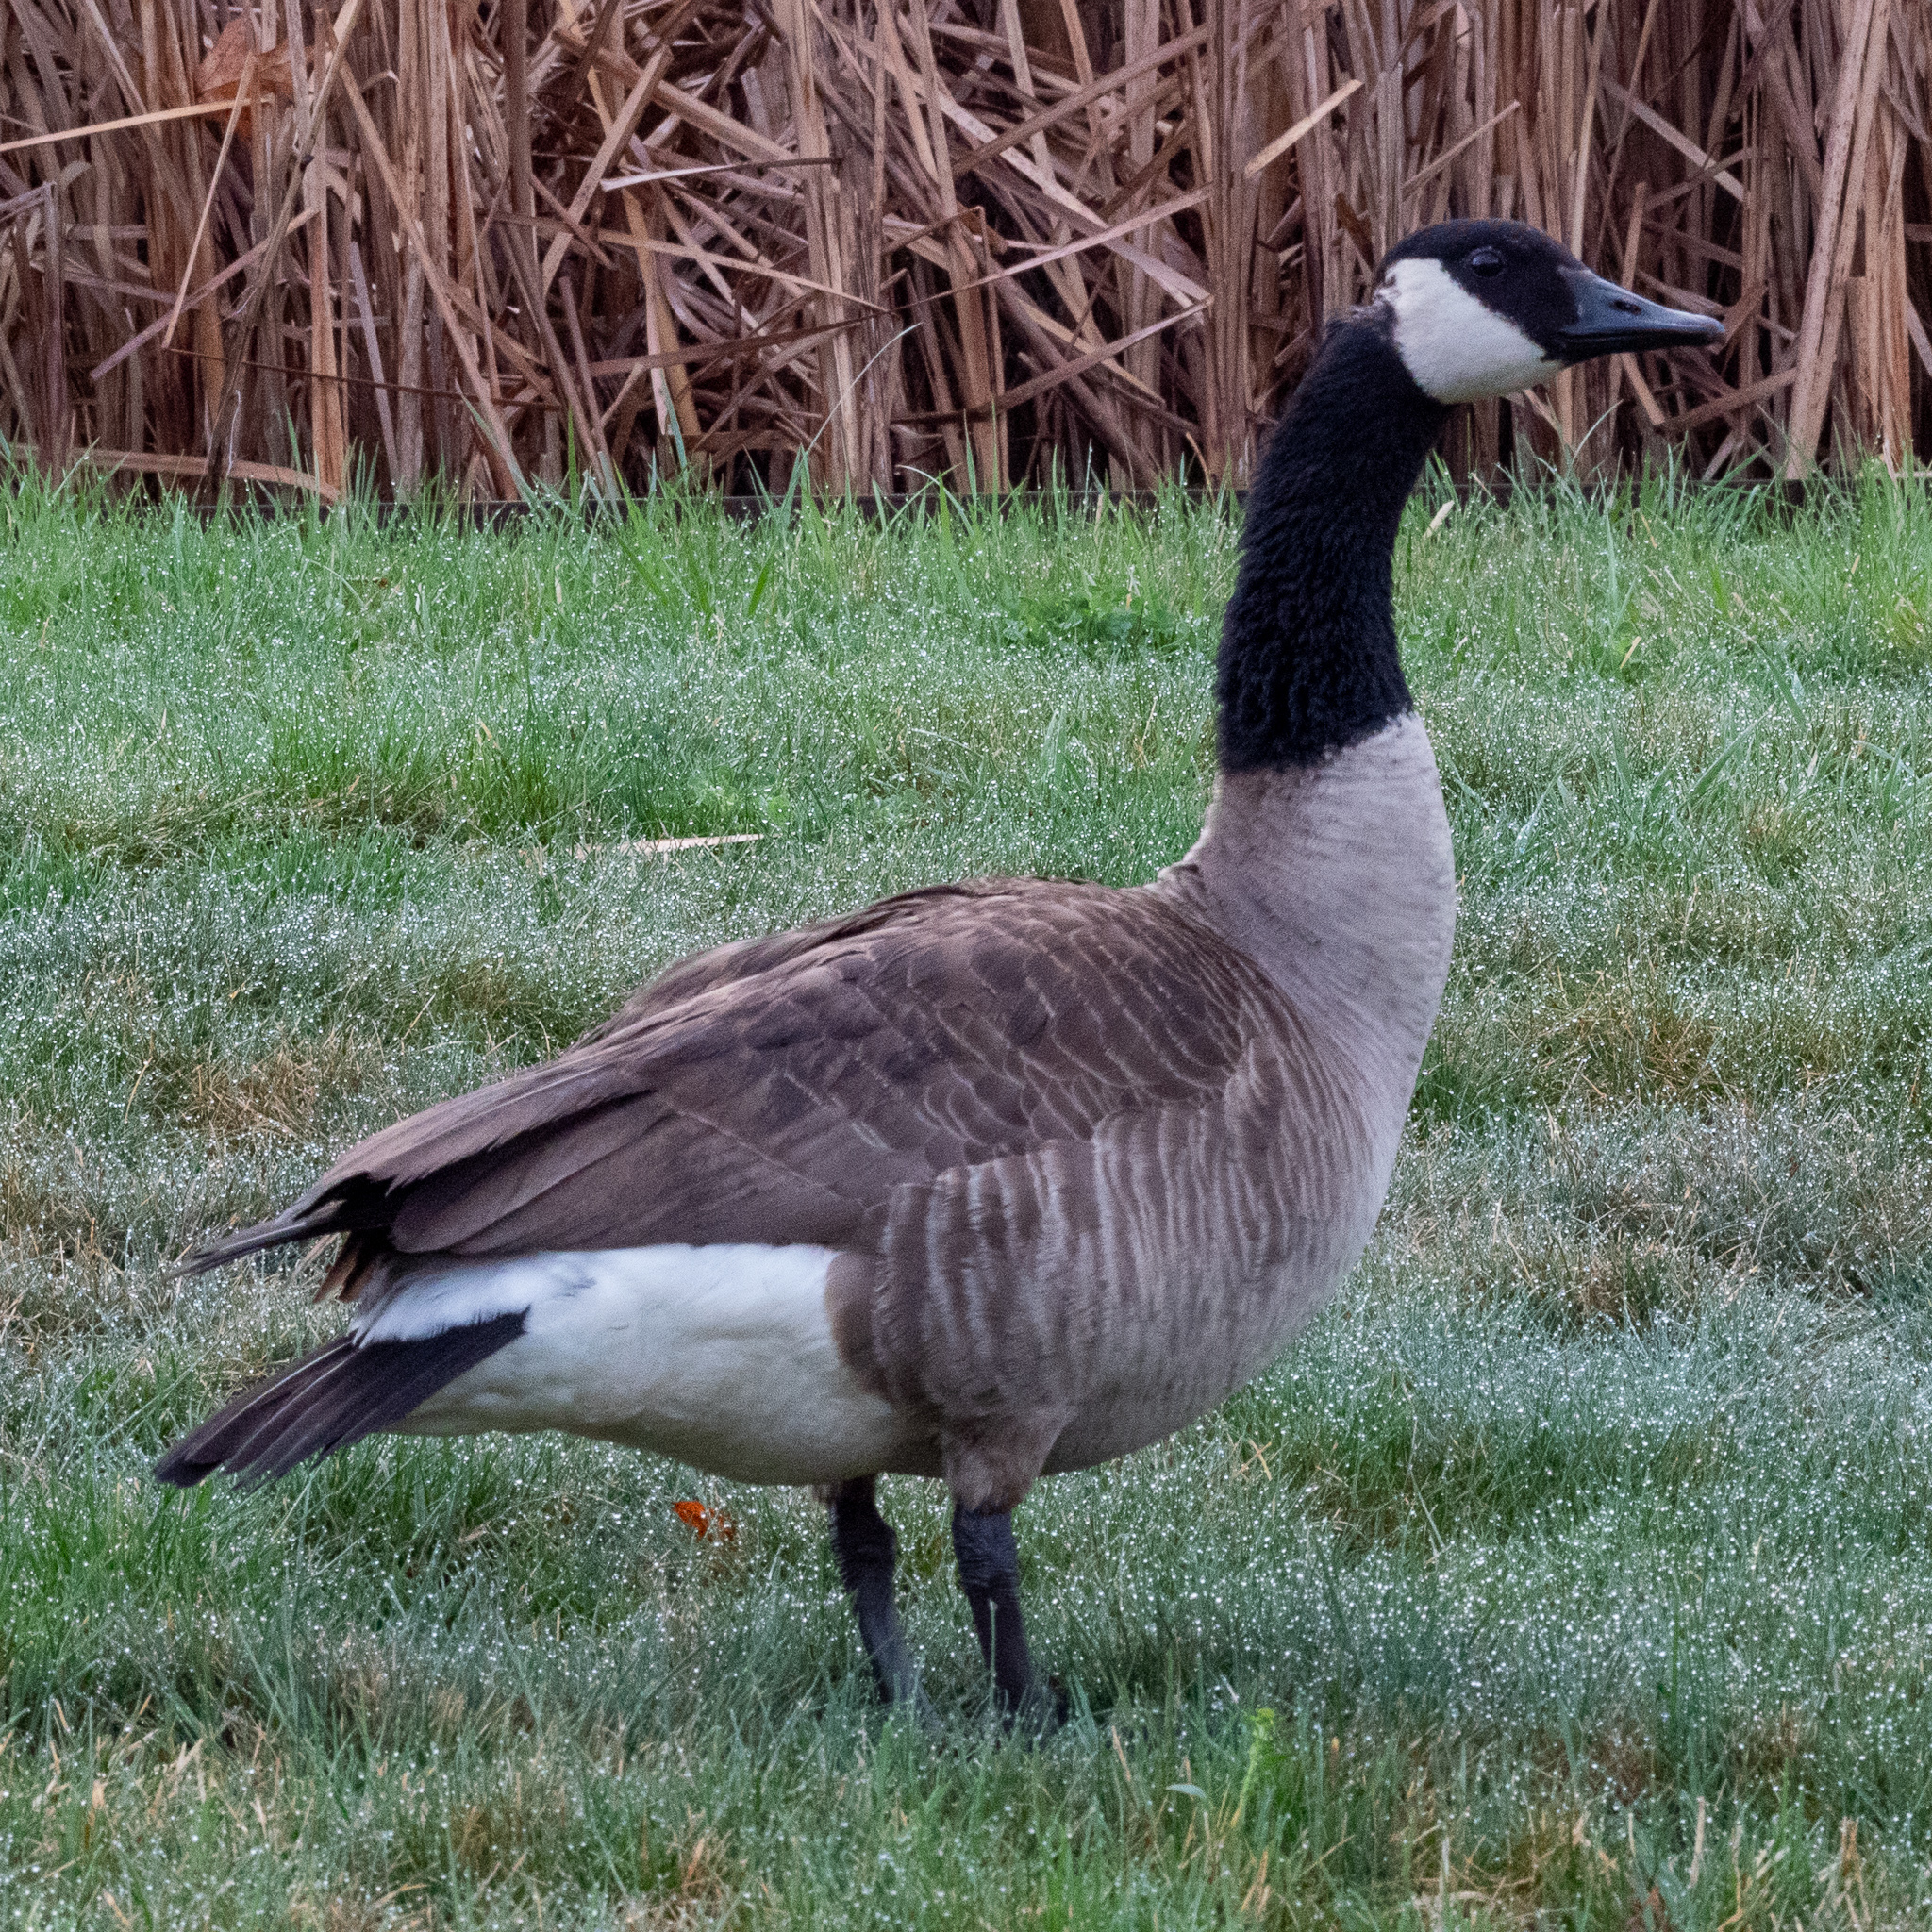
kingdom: Animalia
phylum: Chordata
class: Aves
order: Anseriformes
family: Anatidae
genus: Branta
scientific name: Branta canadensis
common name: Canada goose
